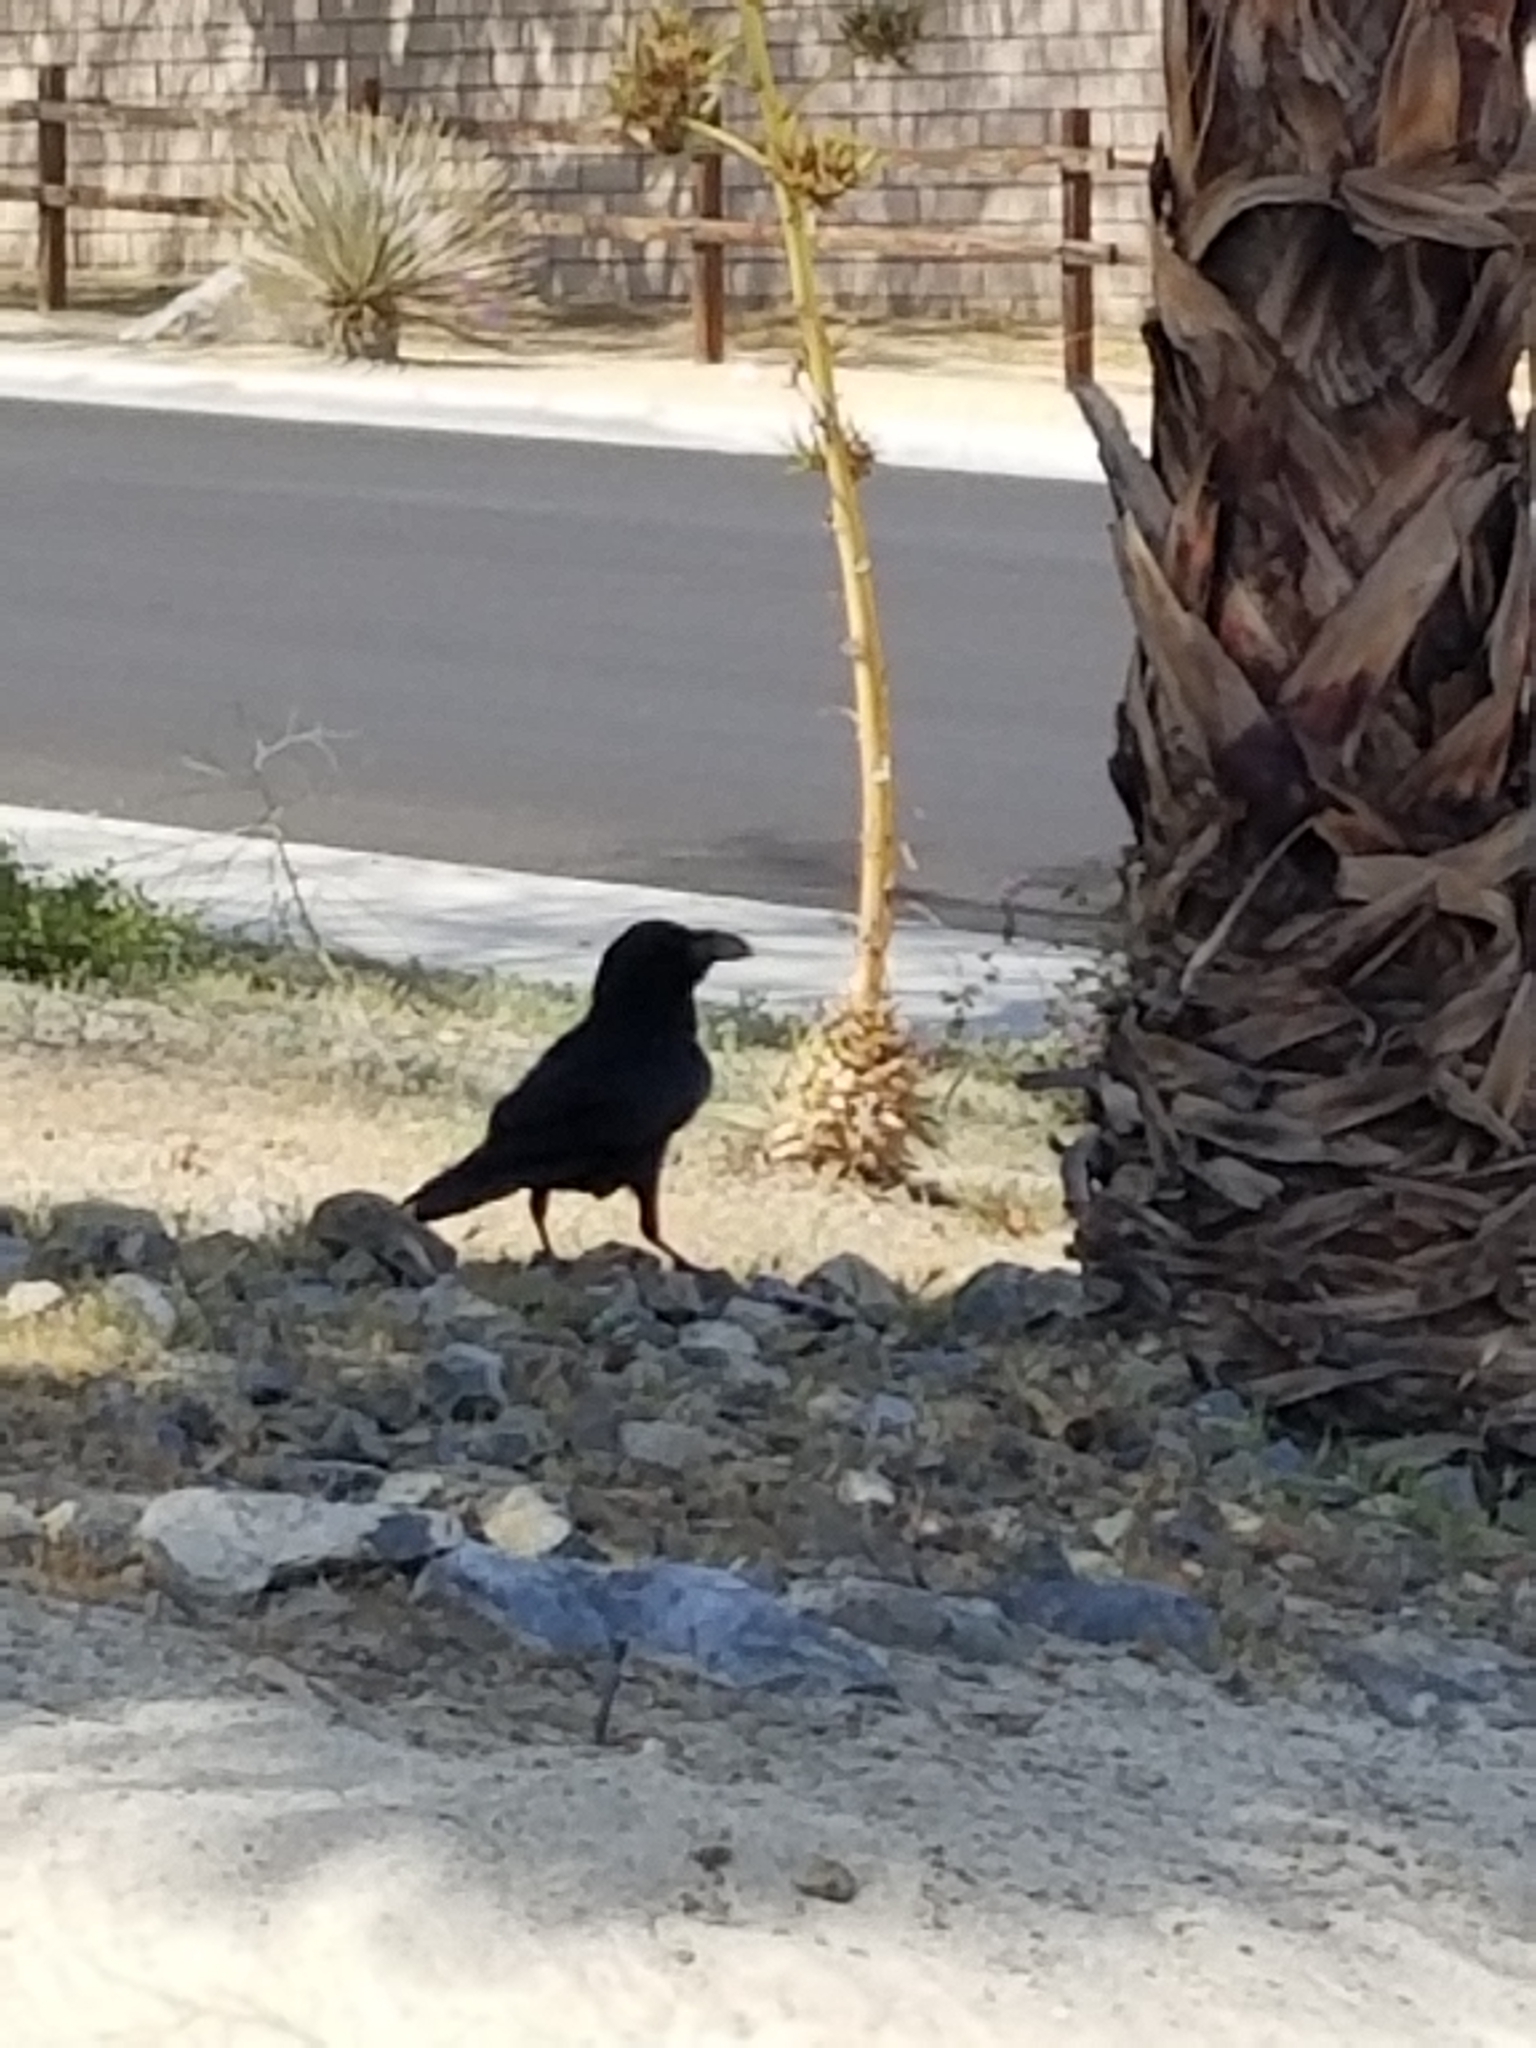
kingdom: Animalia
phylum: Chordata
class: Aves
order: Passeriformes
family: Corvidae
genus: Corvus
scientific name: Corvus corax
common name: Common raven
